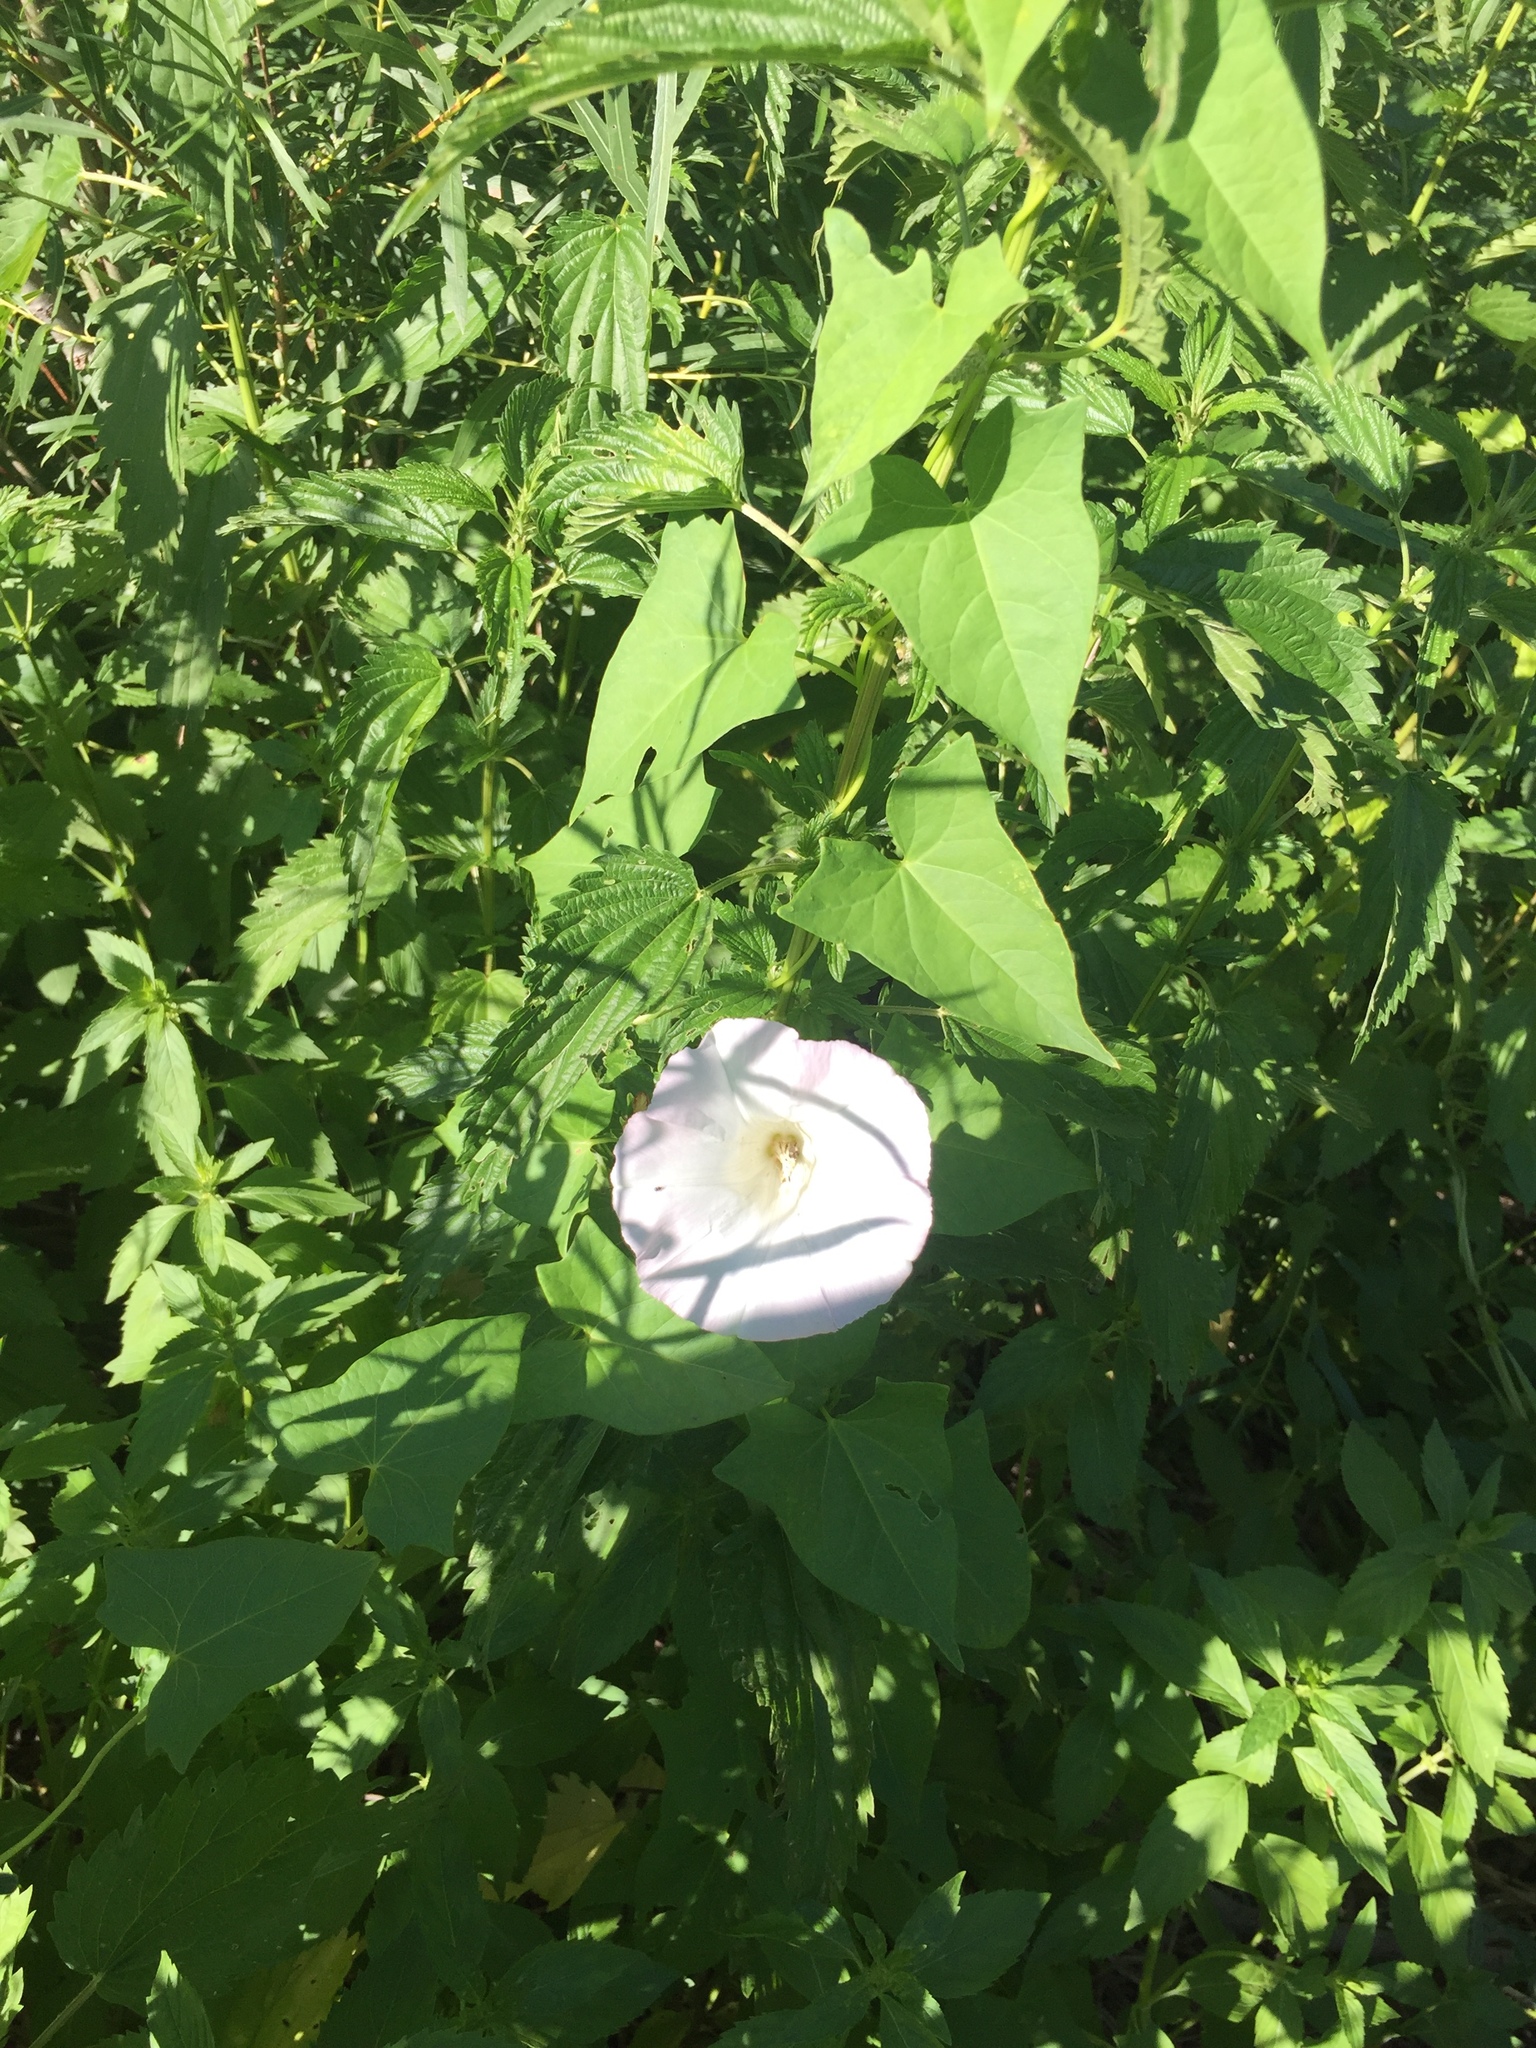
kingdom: Plantae
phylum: Tracheophyta
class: Magnoliopsida
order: Solanales
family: Convolvulaceae
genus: Calystegia
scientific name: Calystegia sepium
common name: Hedge bindweed
